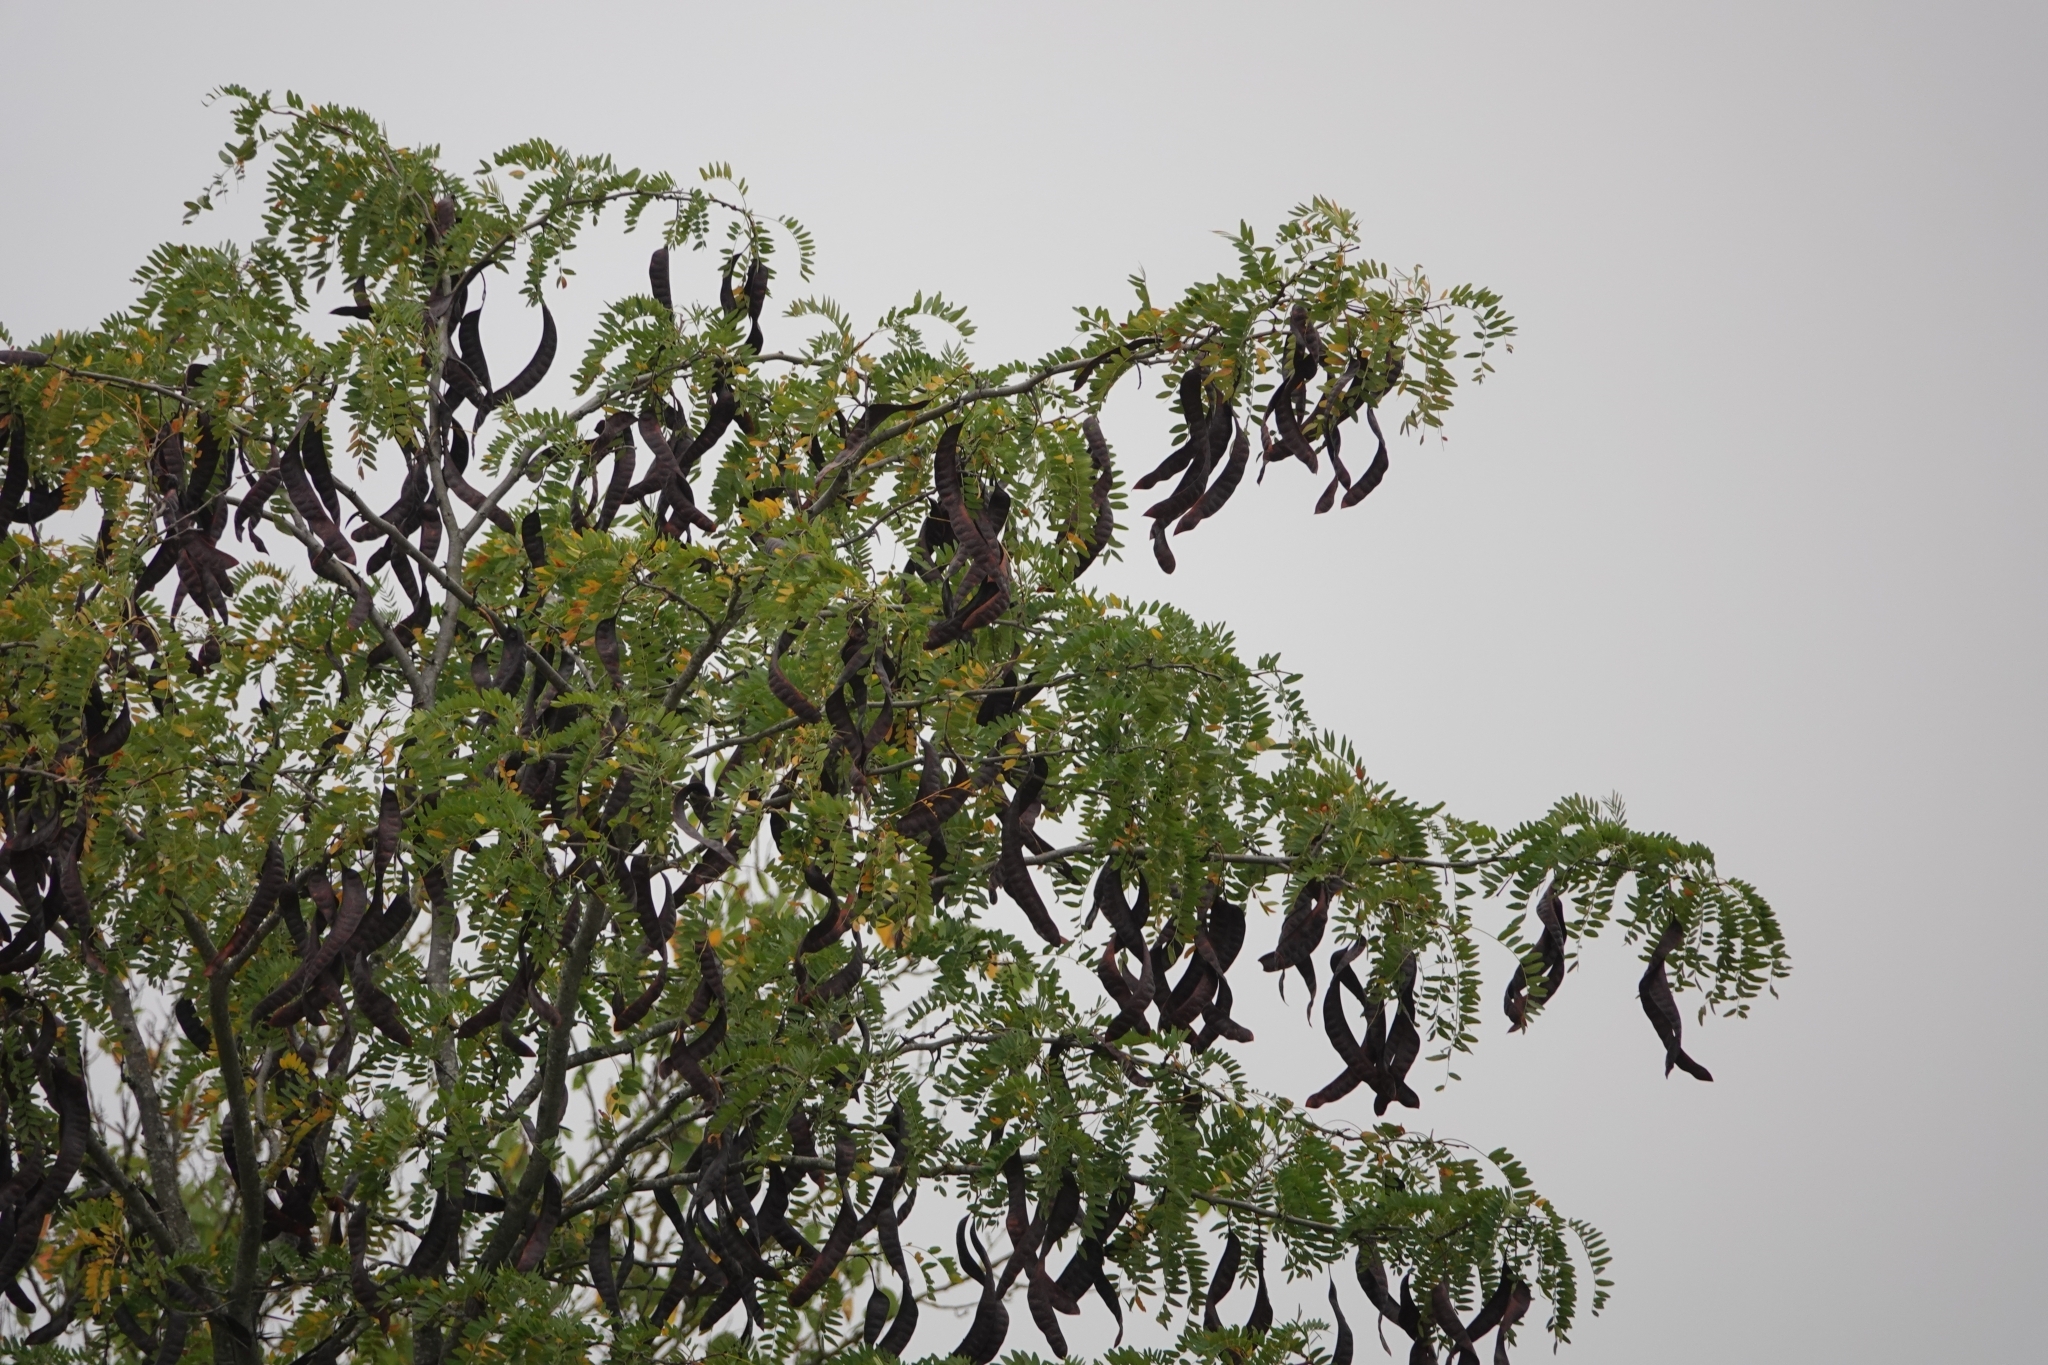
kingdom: Plantae
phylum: Tracheophyta
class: Magnoliopsida
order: Fabales
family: Fabaceae
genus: Gleditsia
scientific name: Gleditsia triacanthos
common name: Common honeylocust
